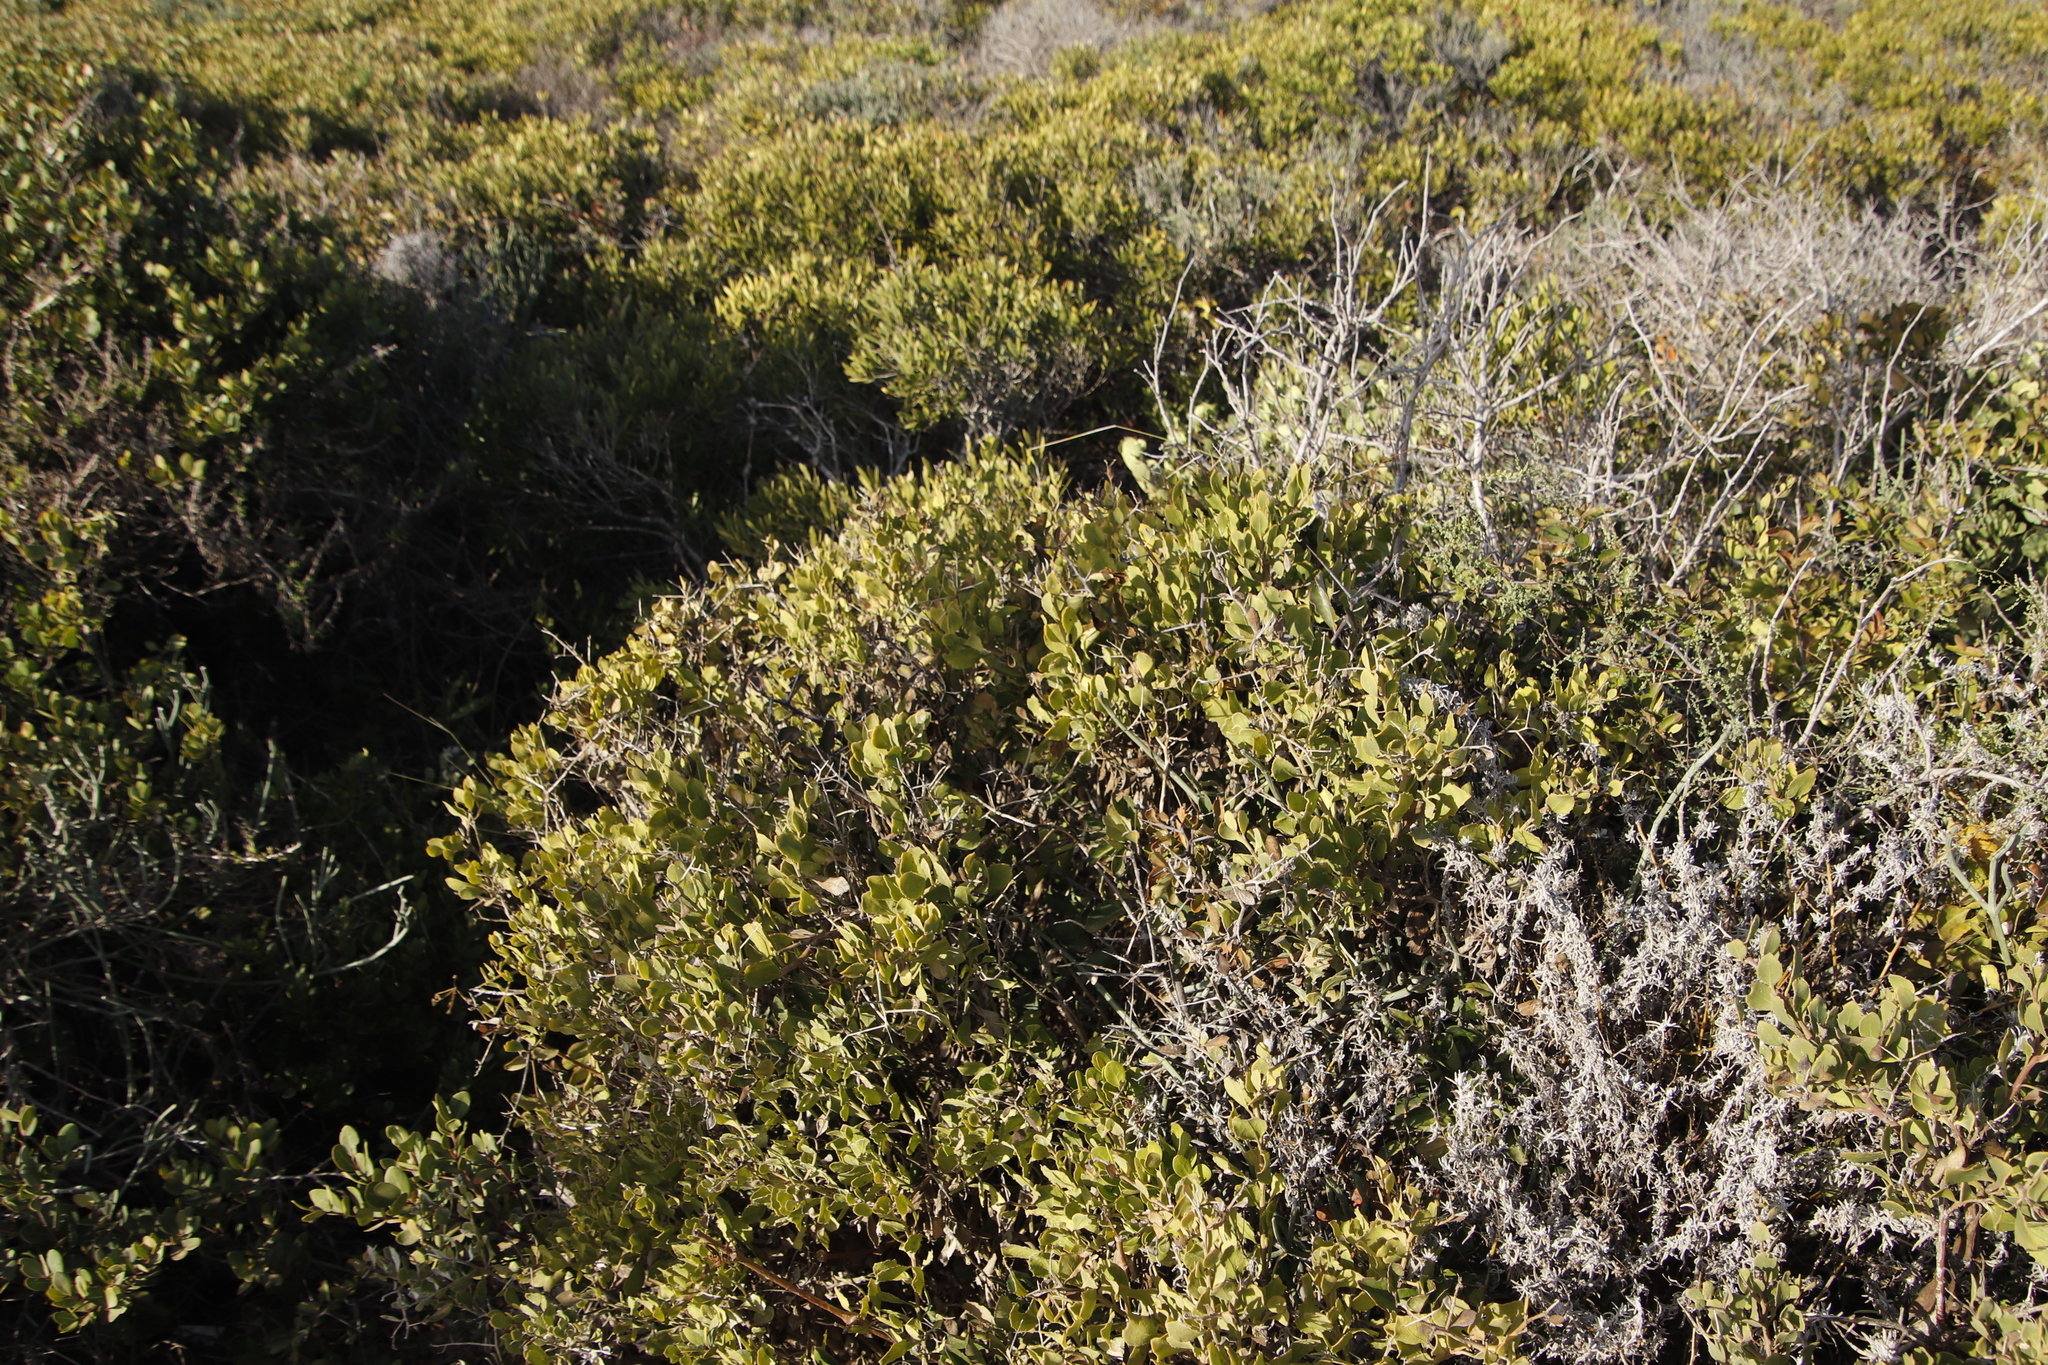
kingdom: Plantae
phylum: Tracheophyta
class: Magnoliopsida
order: Asterales
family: Asteraceae
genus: Osteospermum
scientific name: Osteospermum incanum
